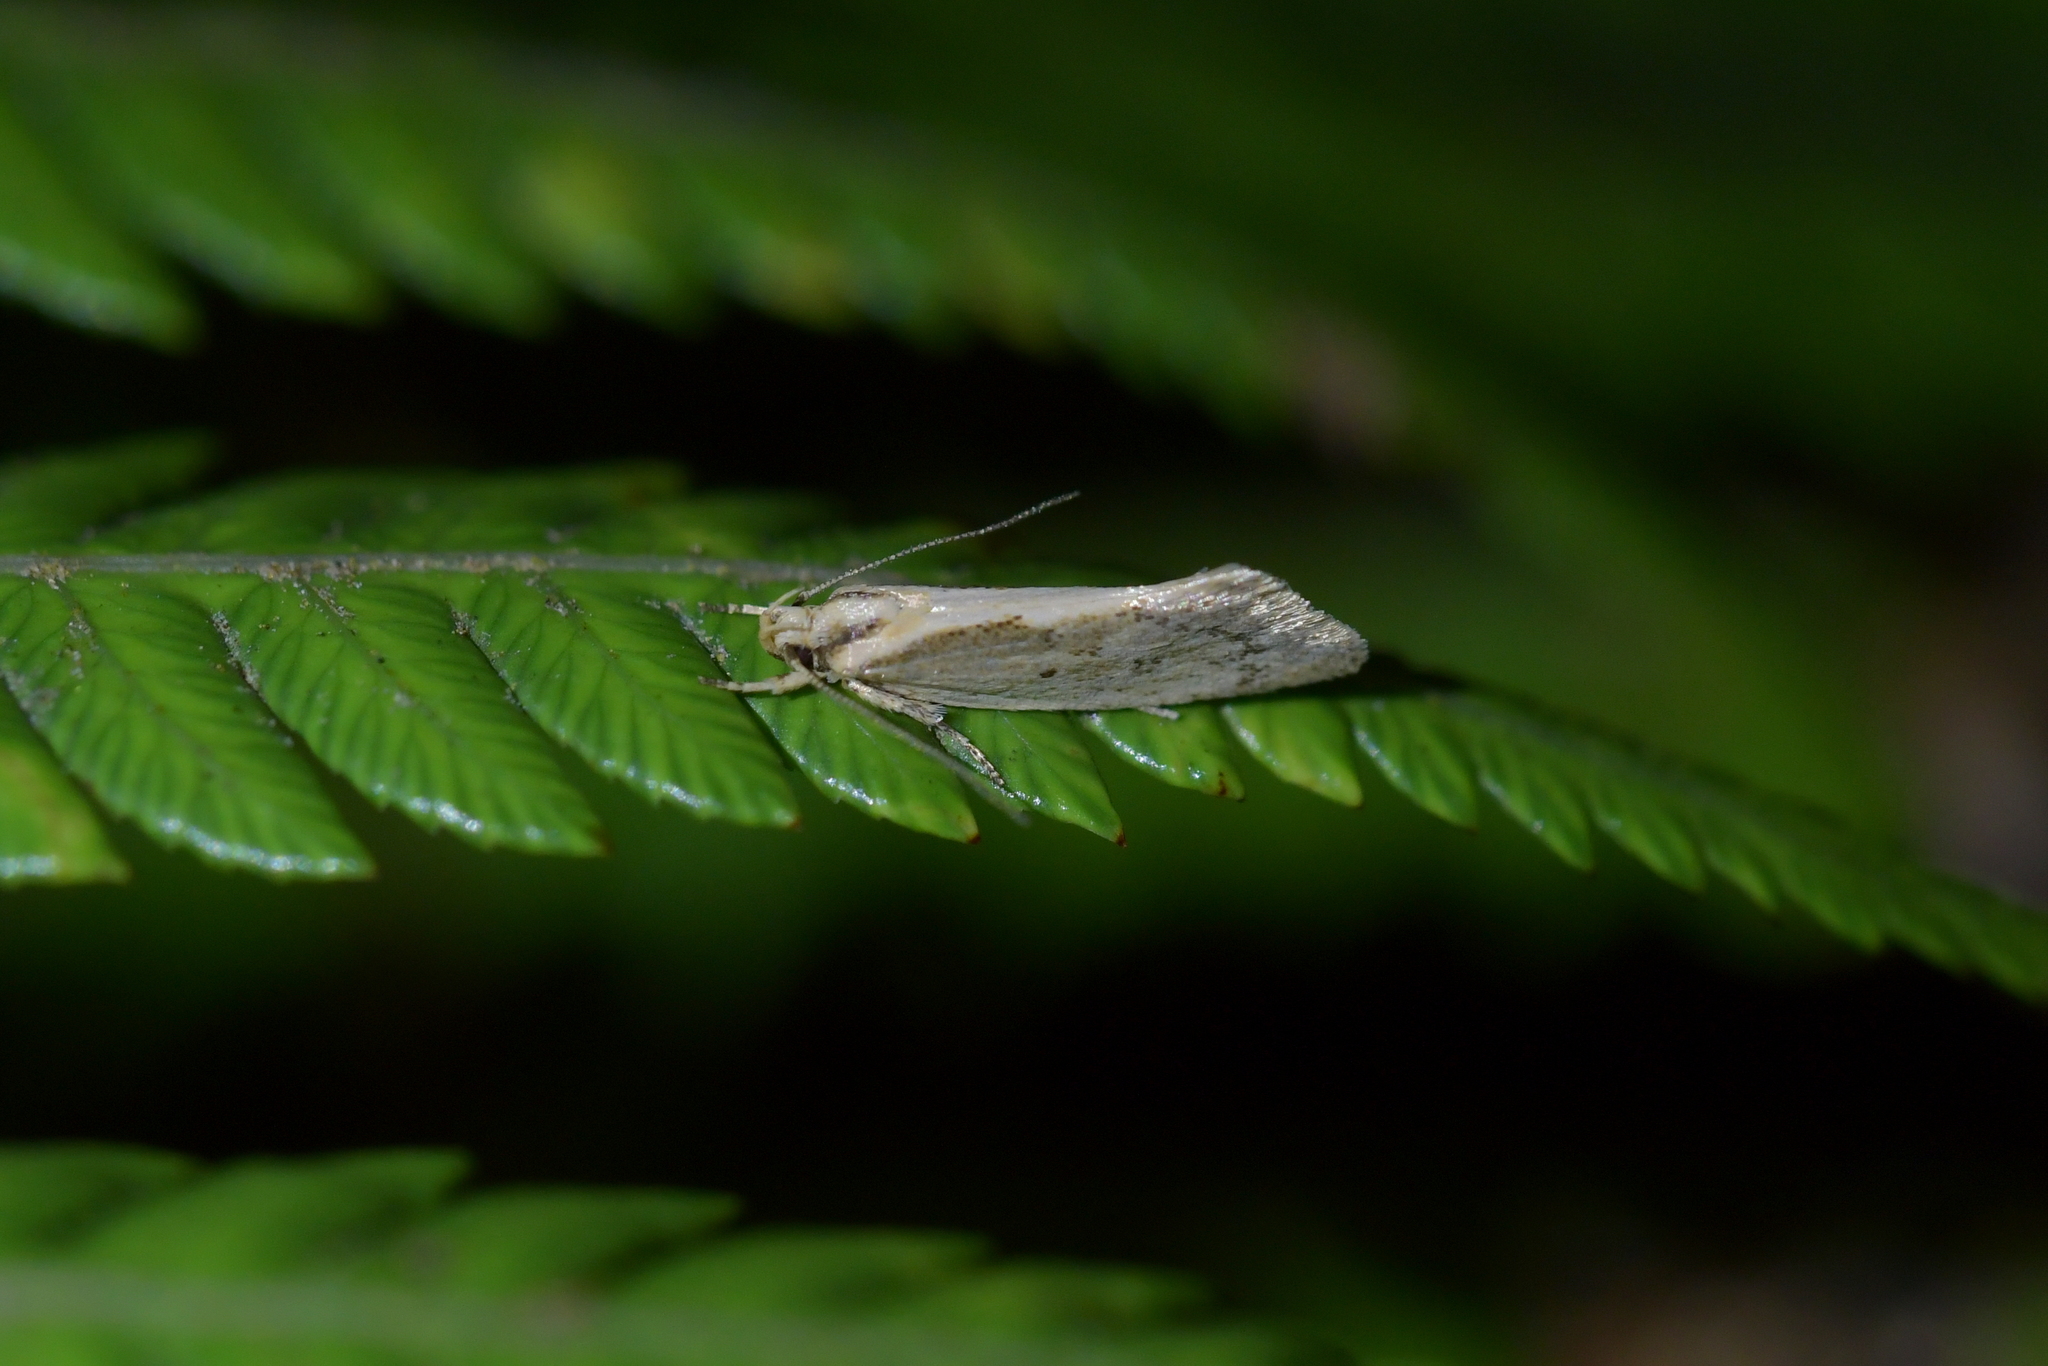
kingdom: Animalia
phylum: Arthropoda
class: Insecta
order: Lepidoptera
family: Oecophoridae
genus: Tingena
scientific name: Tingena chloradelpha
